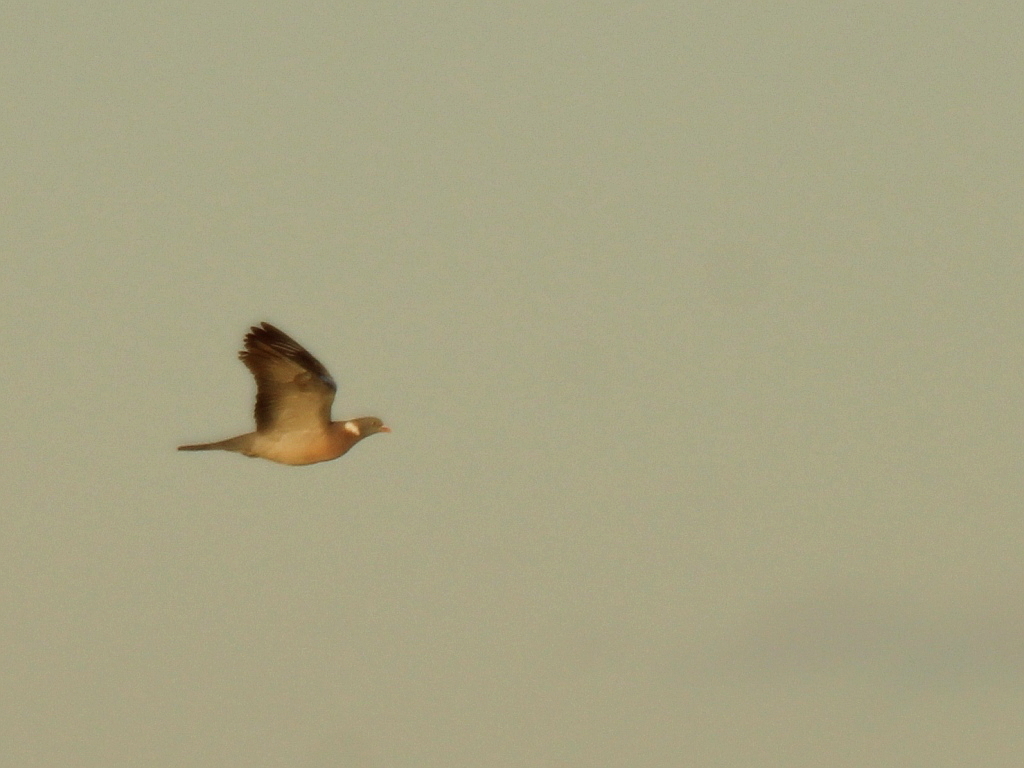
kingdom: Animalia
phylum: Chordata
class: Aves
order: Columbiformes
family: Columbidae
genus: Columba
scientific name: Columba palumbus
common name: Common wood pigeon
